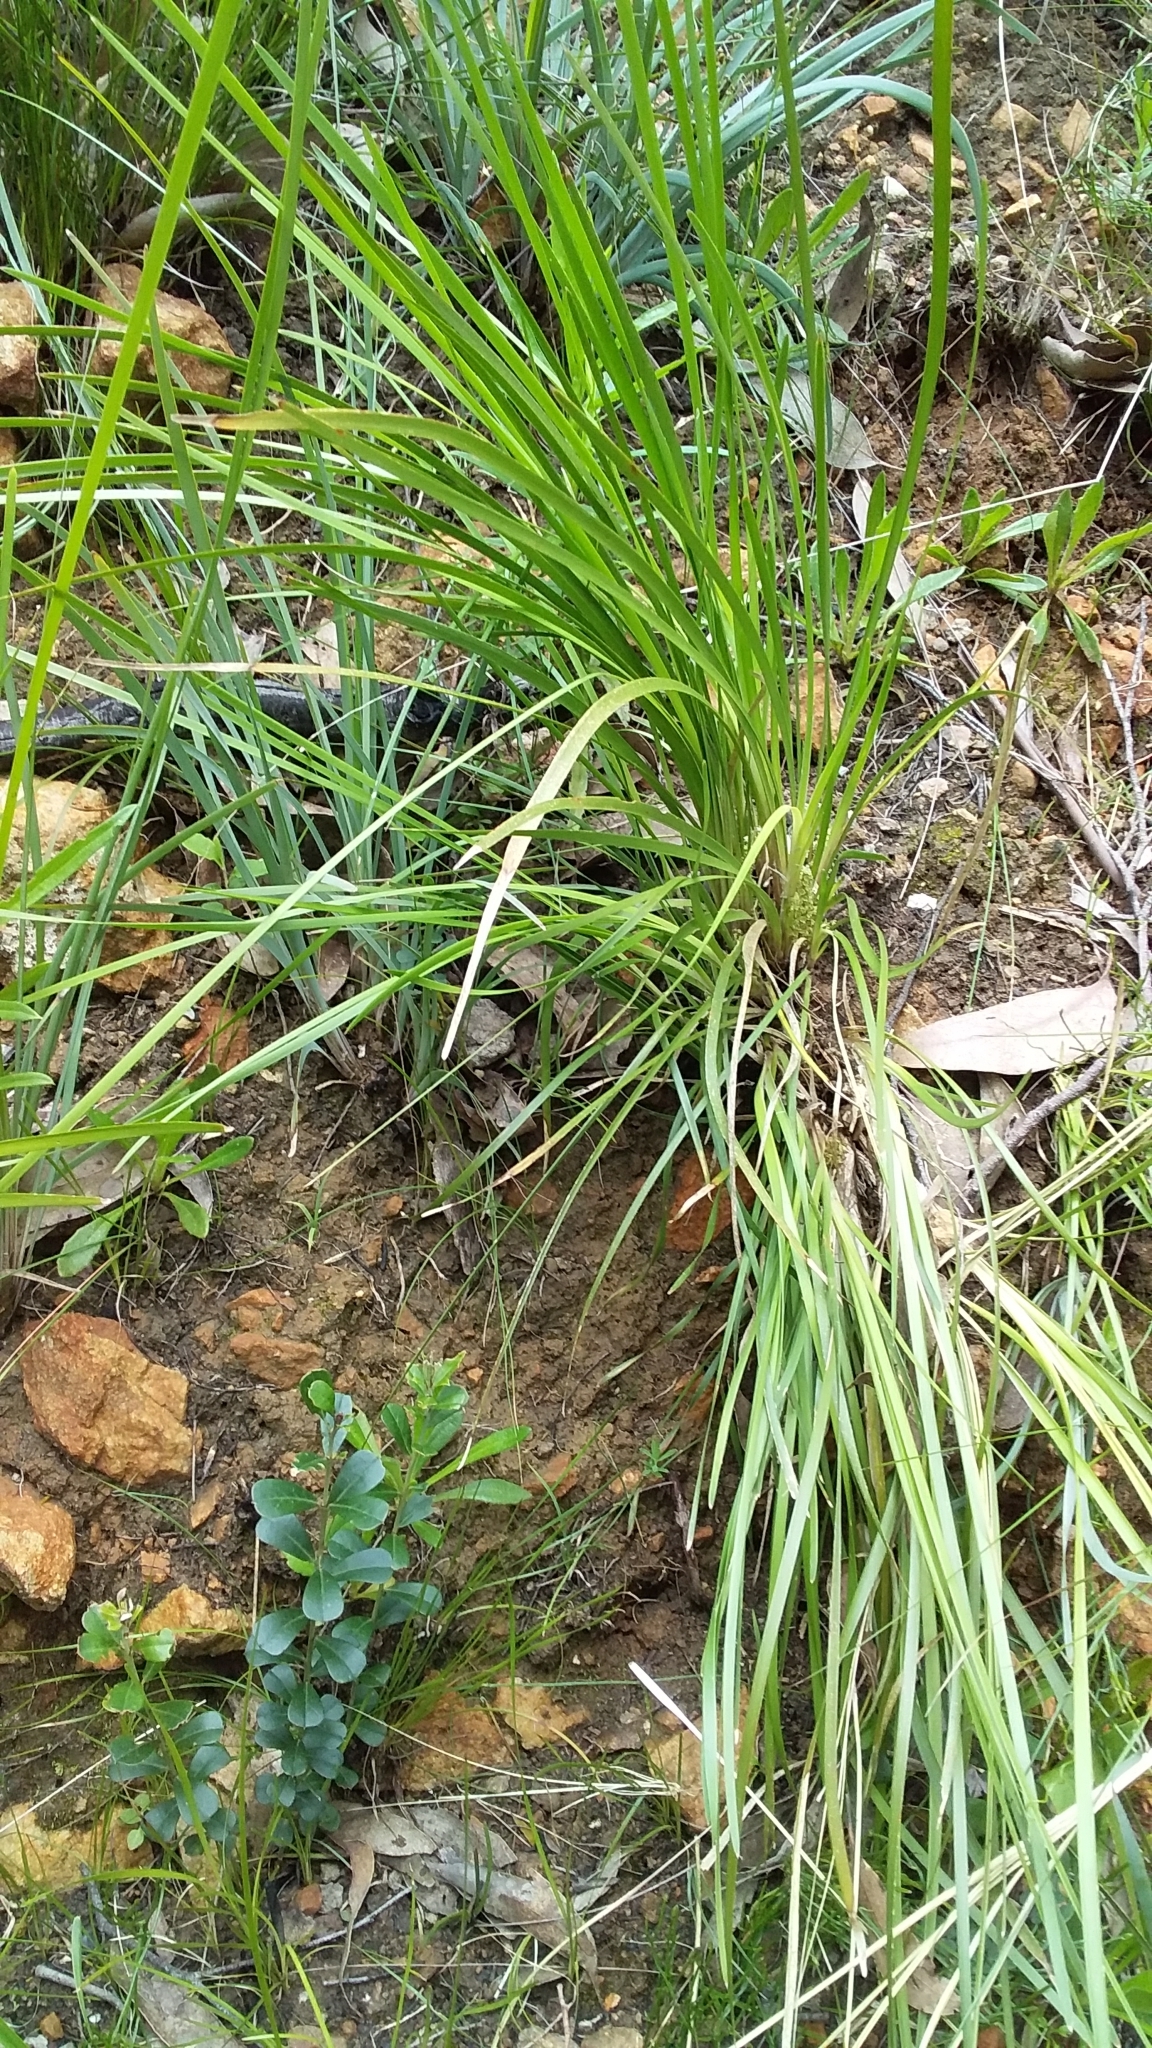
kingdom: Plantae
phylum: Tracheophyta
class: Liliopsida
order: Asparagales
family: Asparagaceae
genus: Lomandra
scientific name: Lomandra densiflora
